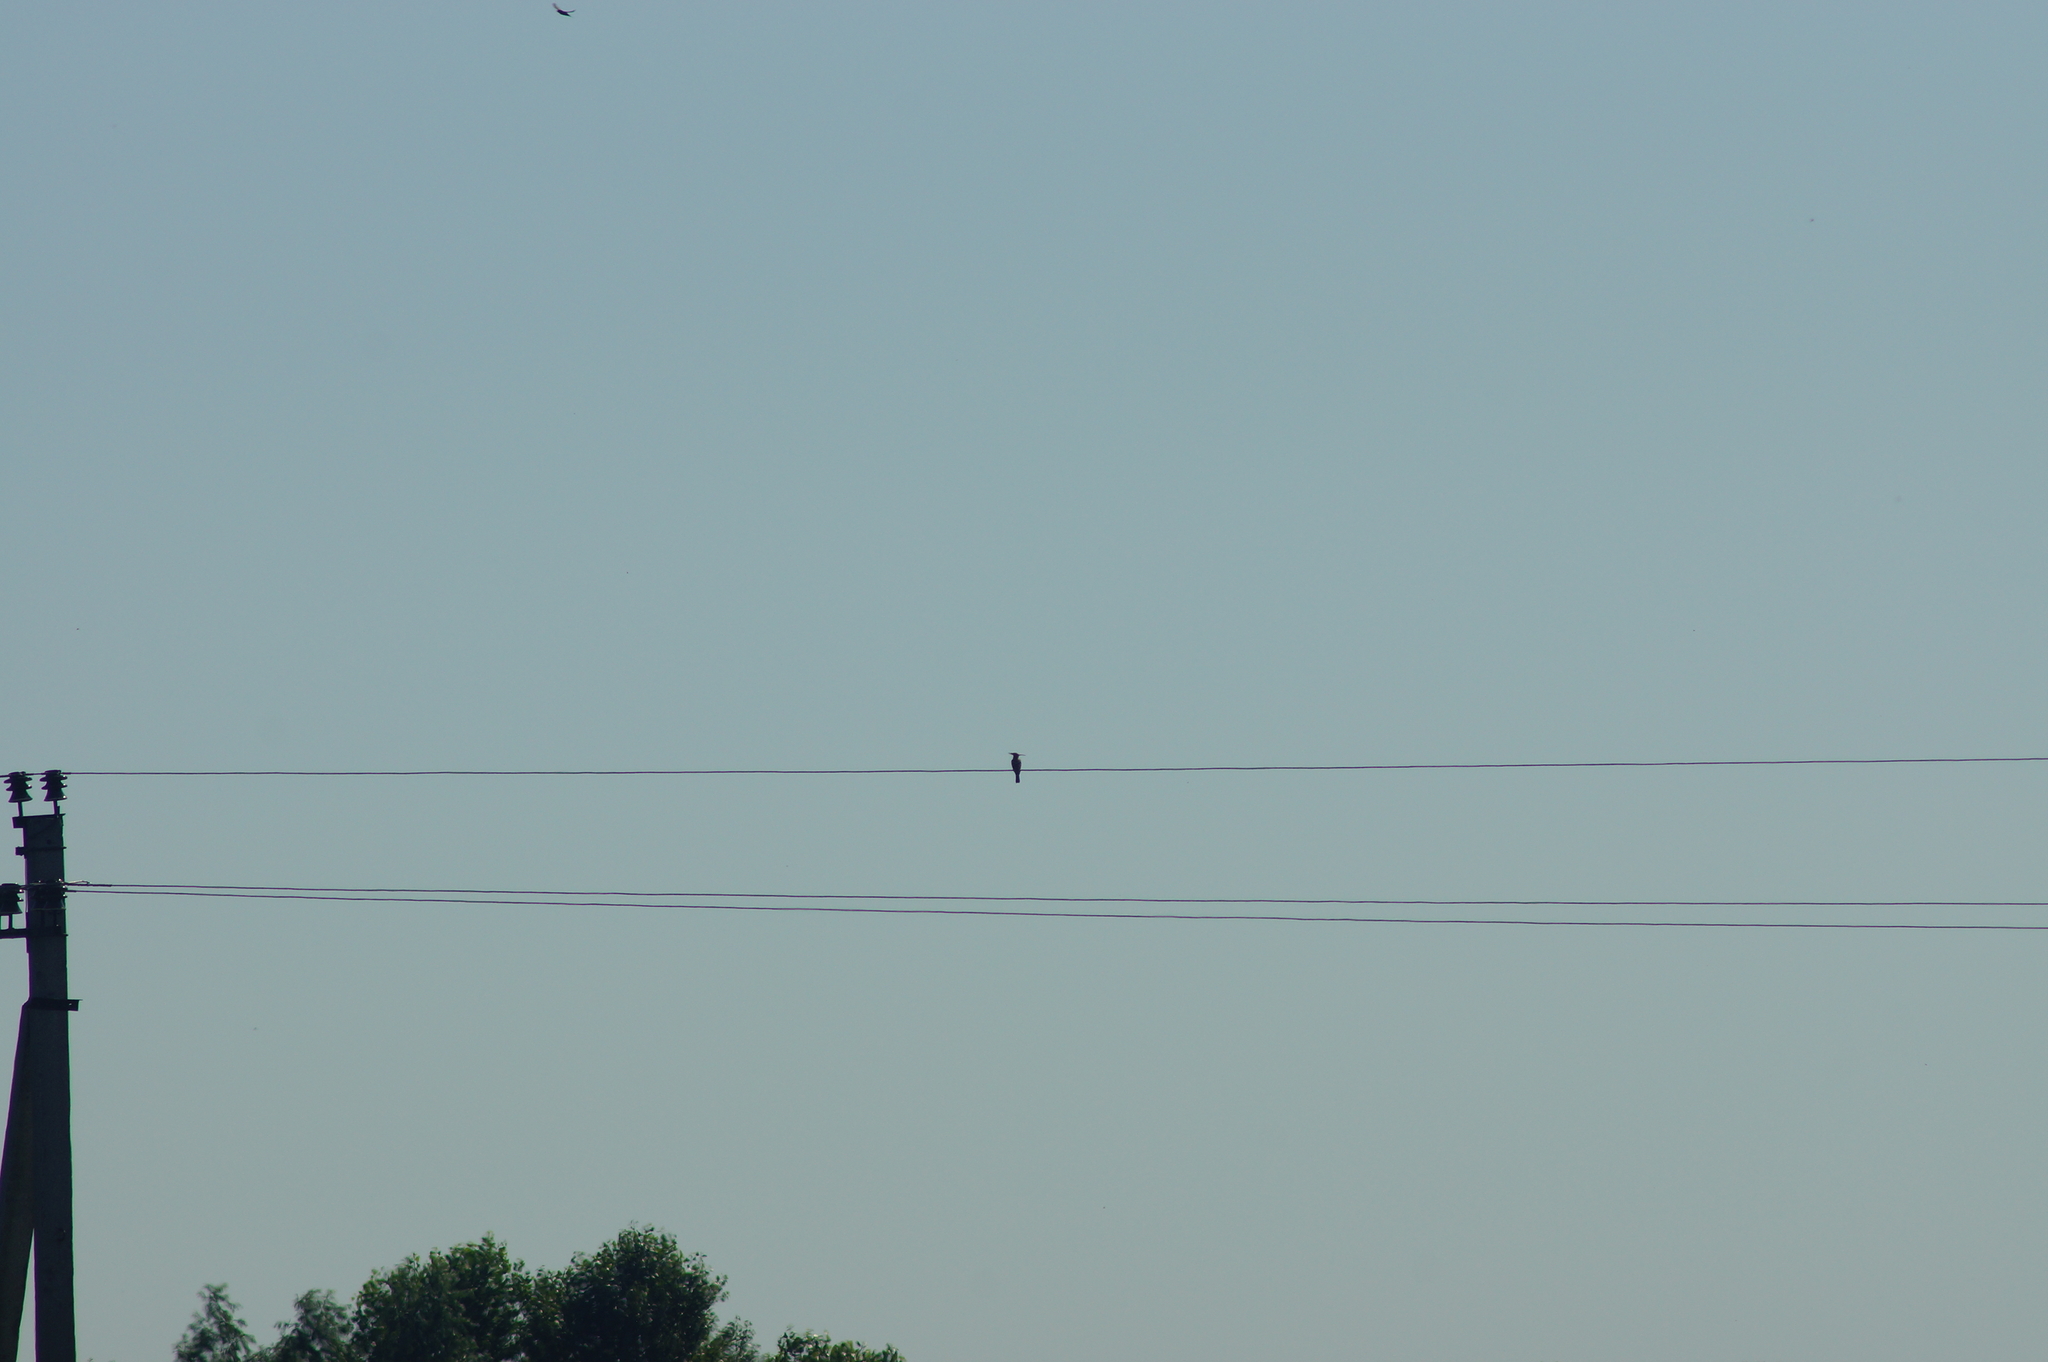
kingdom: Animalia
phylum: Chordata
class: Aves
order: Bucerotiformes
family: Upupidae
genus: Upupa
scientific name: Upupa epops
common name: Eurasian hoopoe
